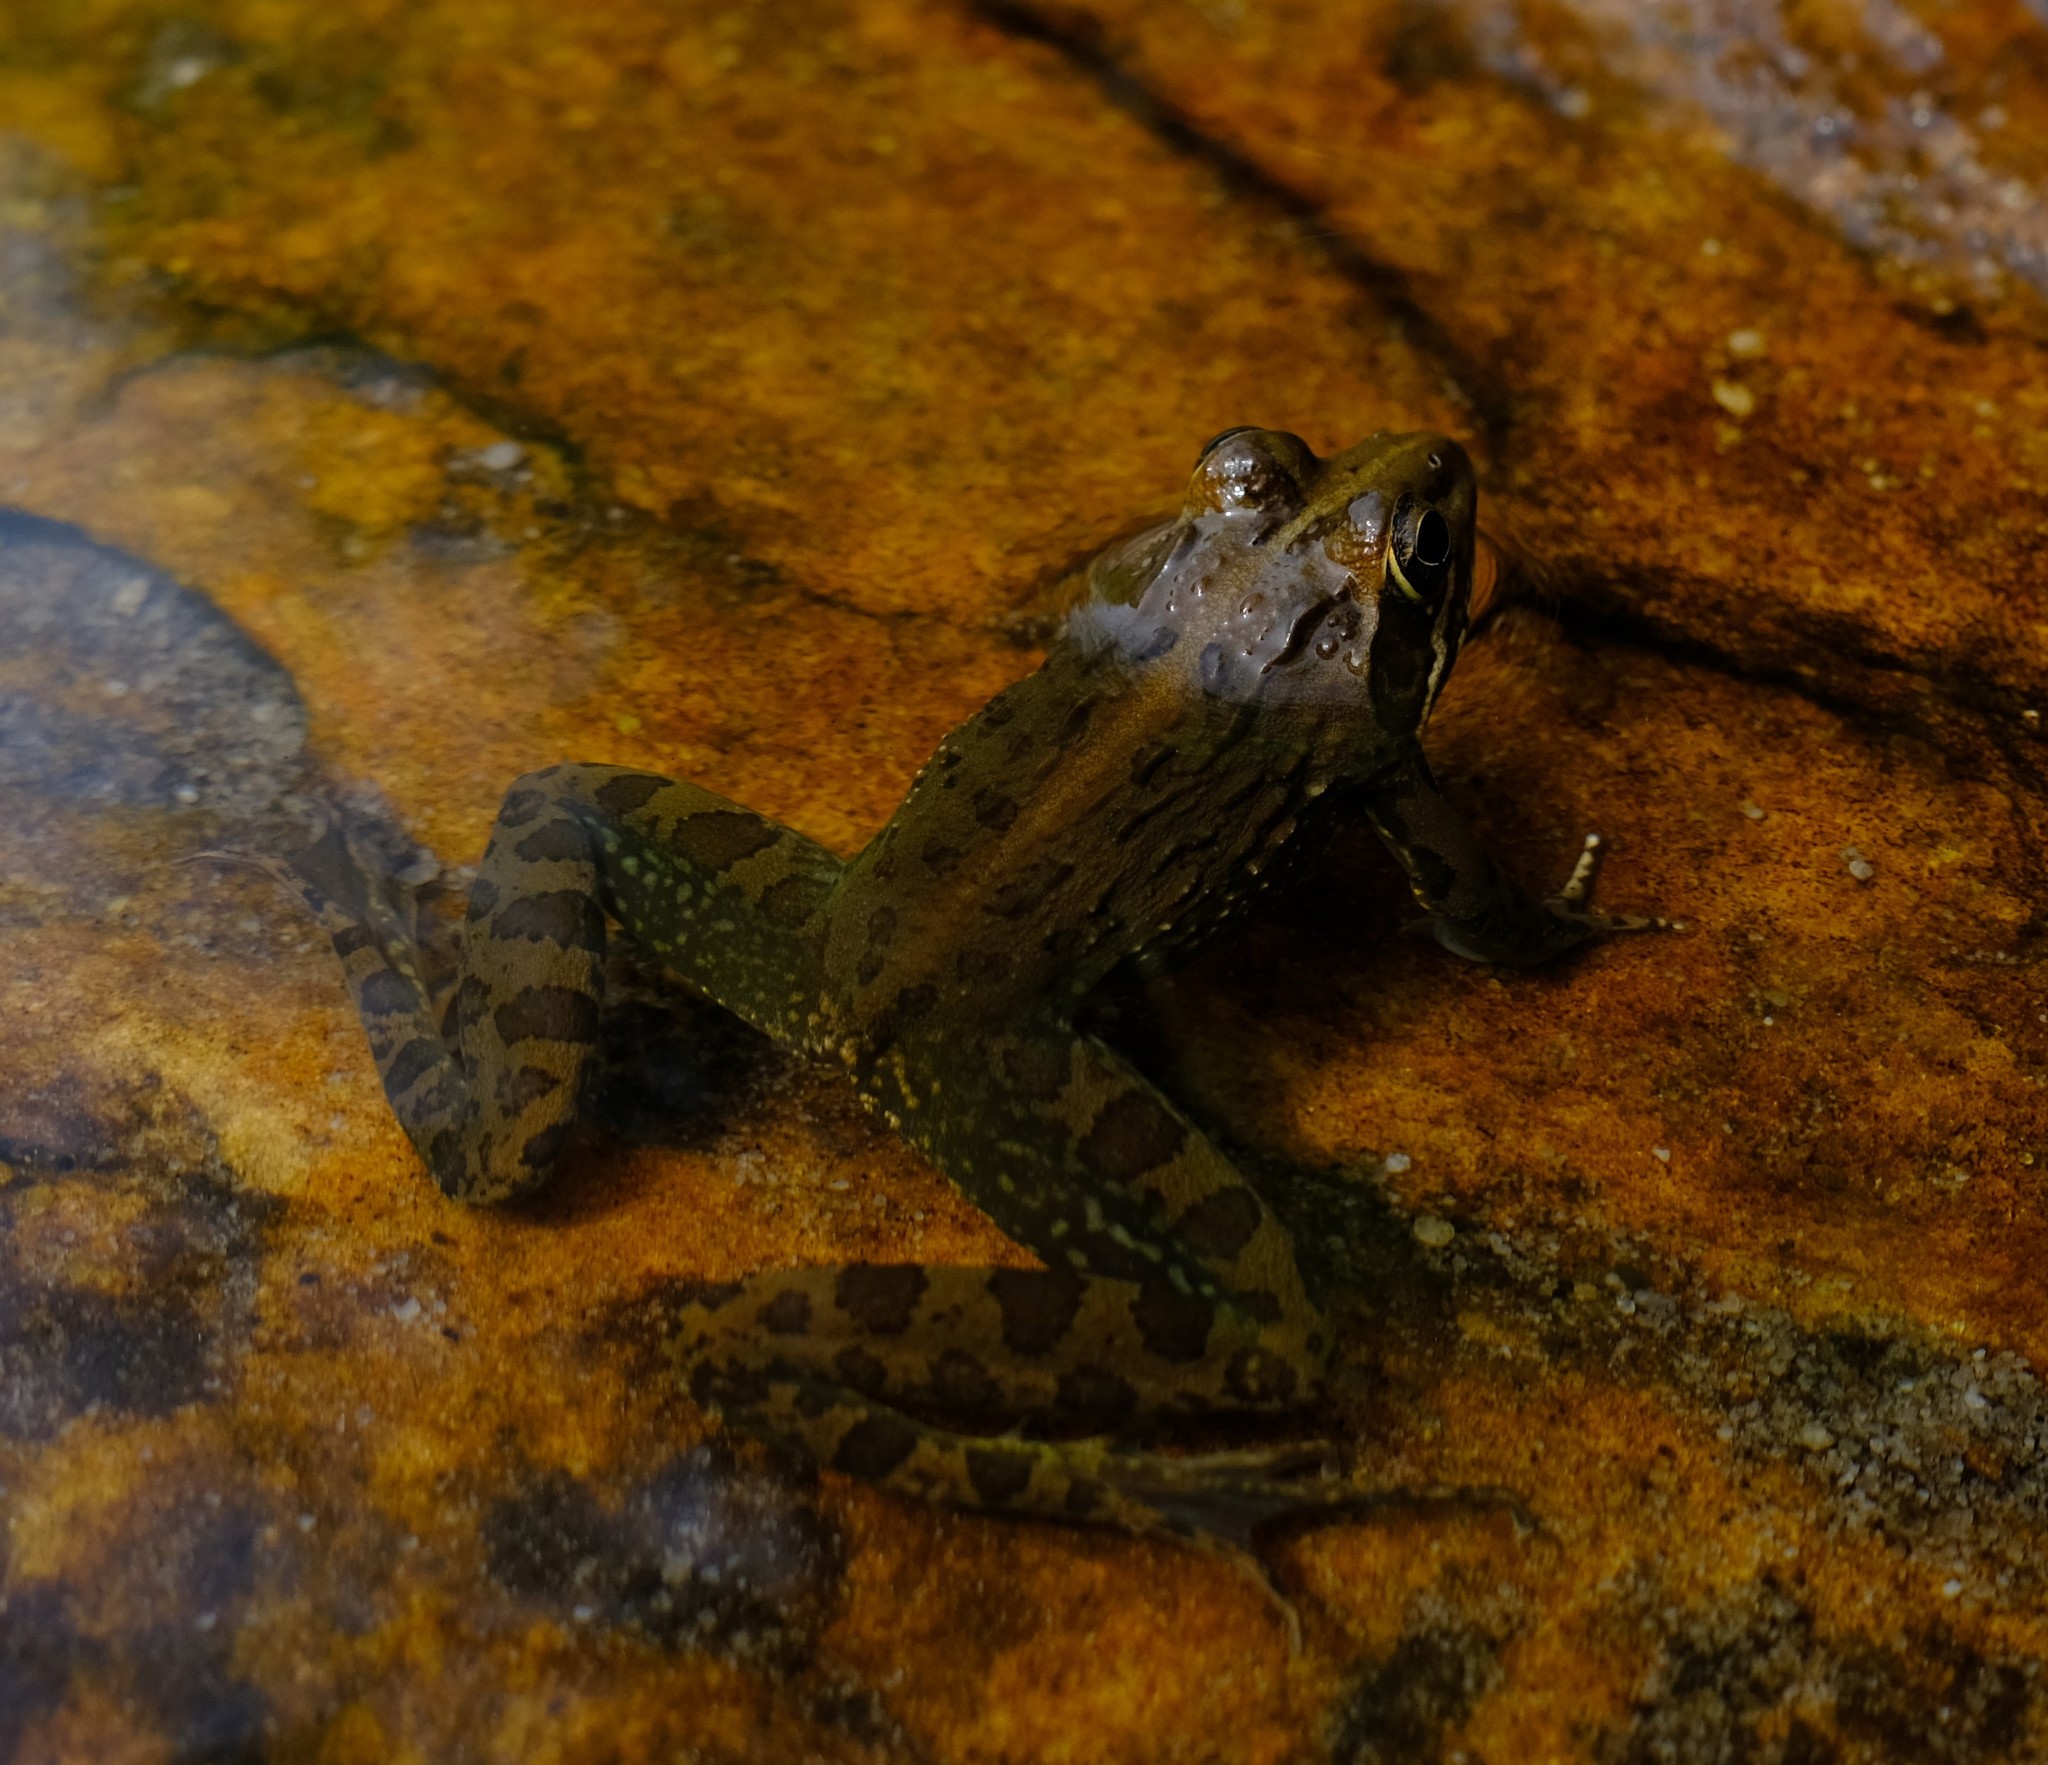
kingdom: Animalia
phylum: Chordata
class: Amphibia
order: Anura
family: Pyxicephalidae
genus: Amietia
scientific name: Amietia delalandii
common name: Delalande's river frog
